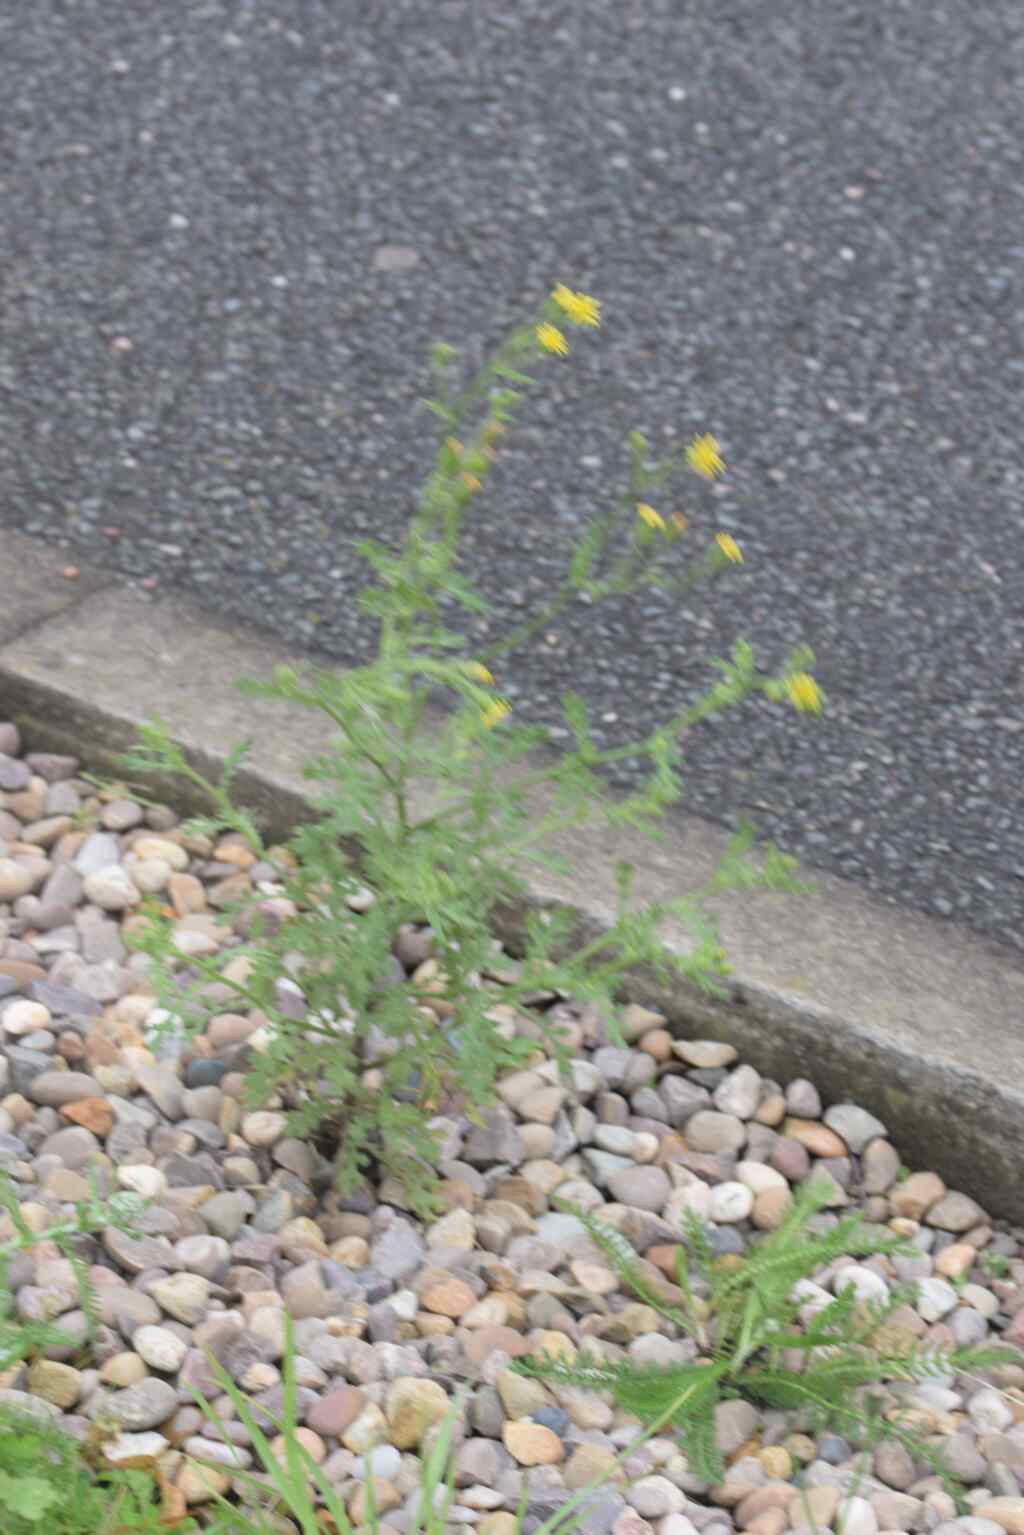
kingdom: Plantae
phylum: Tracheophyta
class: Magnoliopsida
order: Asterales
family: Asteraceae
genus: Senecio
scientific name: Senecio viscosus
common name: Sticky groundsel
